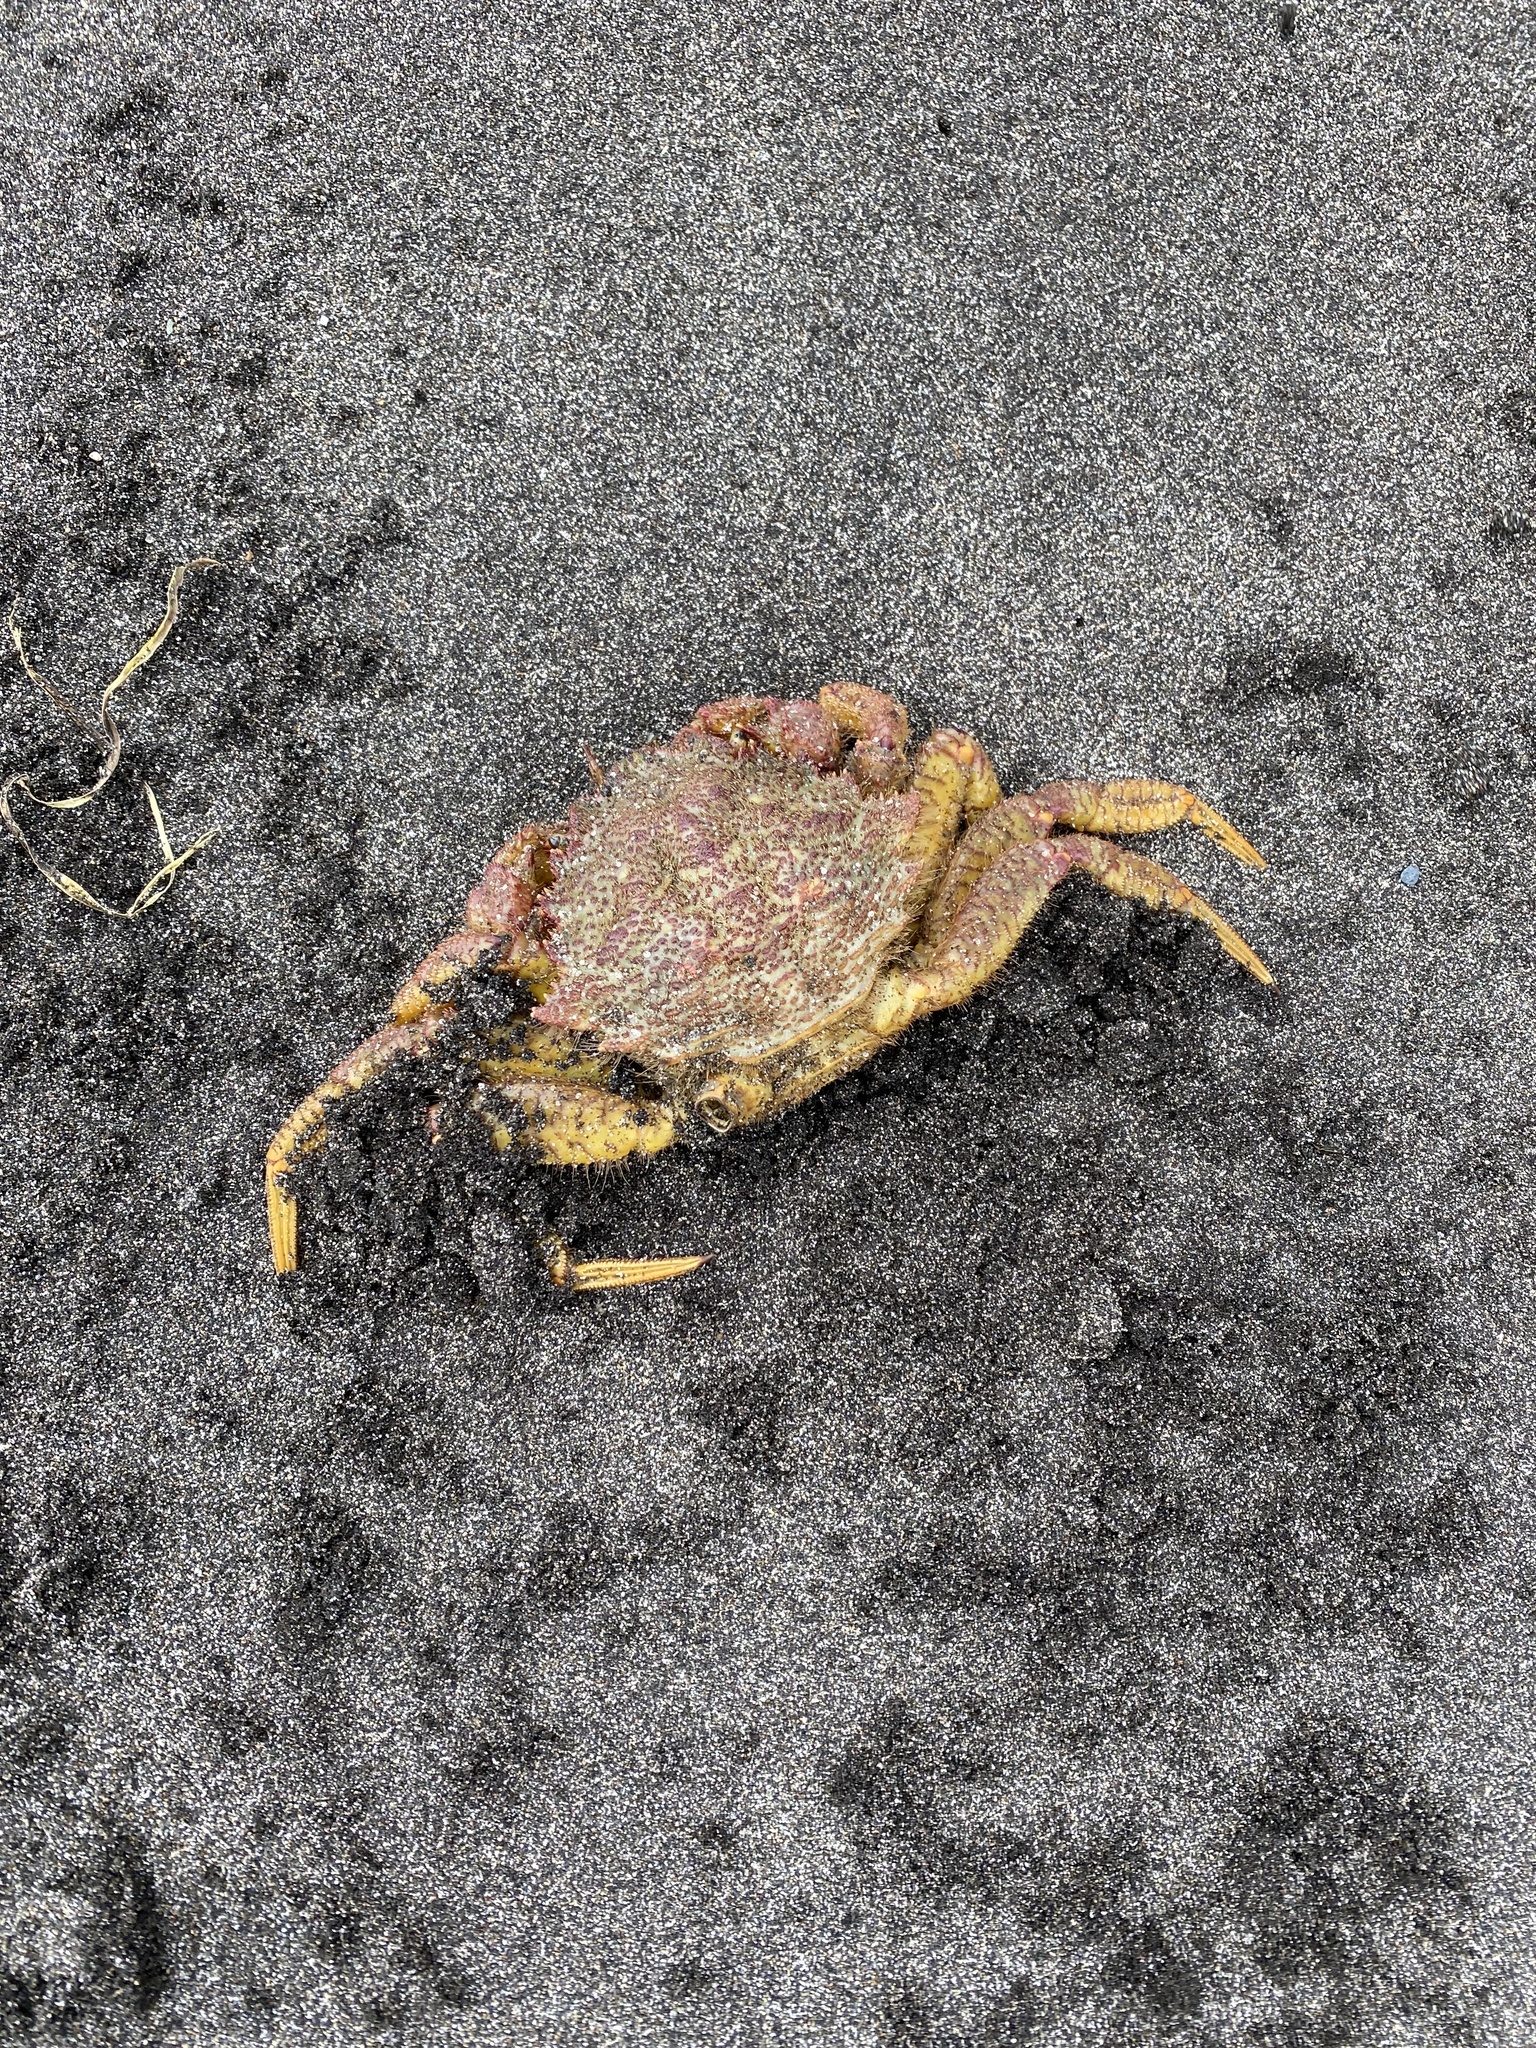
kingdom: Animalia
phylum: Arthropoda
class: Malacostraca
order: Decapoda
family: Cheiragonidae
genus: Telmessus
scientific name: Telmessus cheiragonus
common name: Helmet crab
